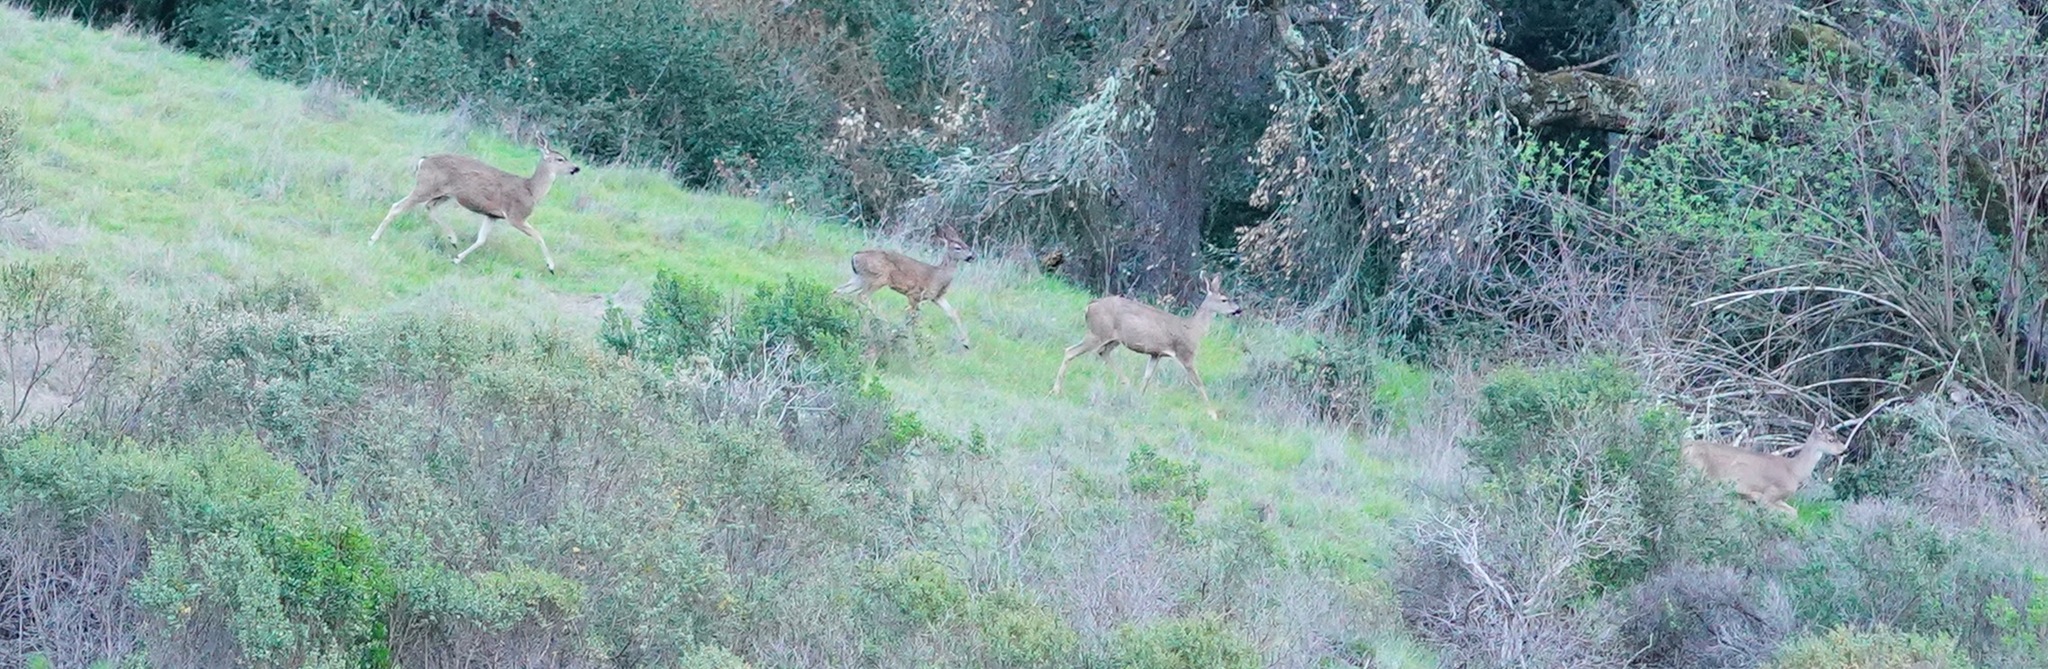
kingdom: Animalia
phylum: Chordata
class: Mammalia
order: Artiodactyla
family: Cervidae
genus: Odocoileus
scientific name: Odocoileus hemionus
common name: Mule deer
